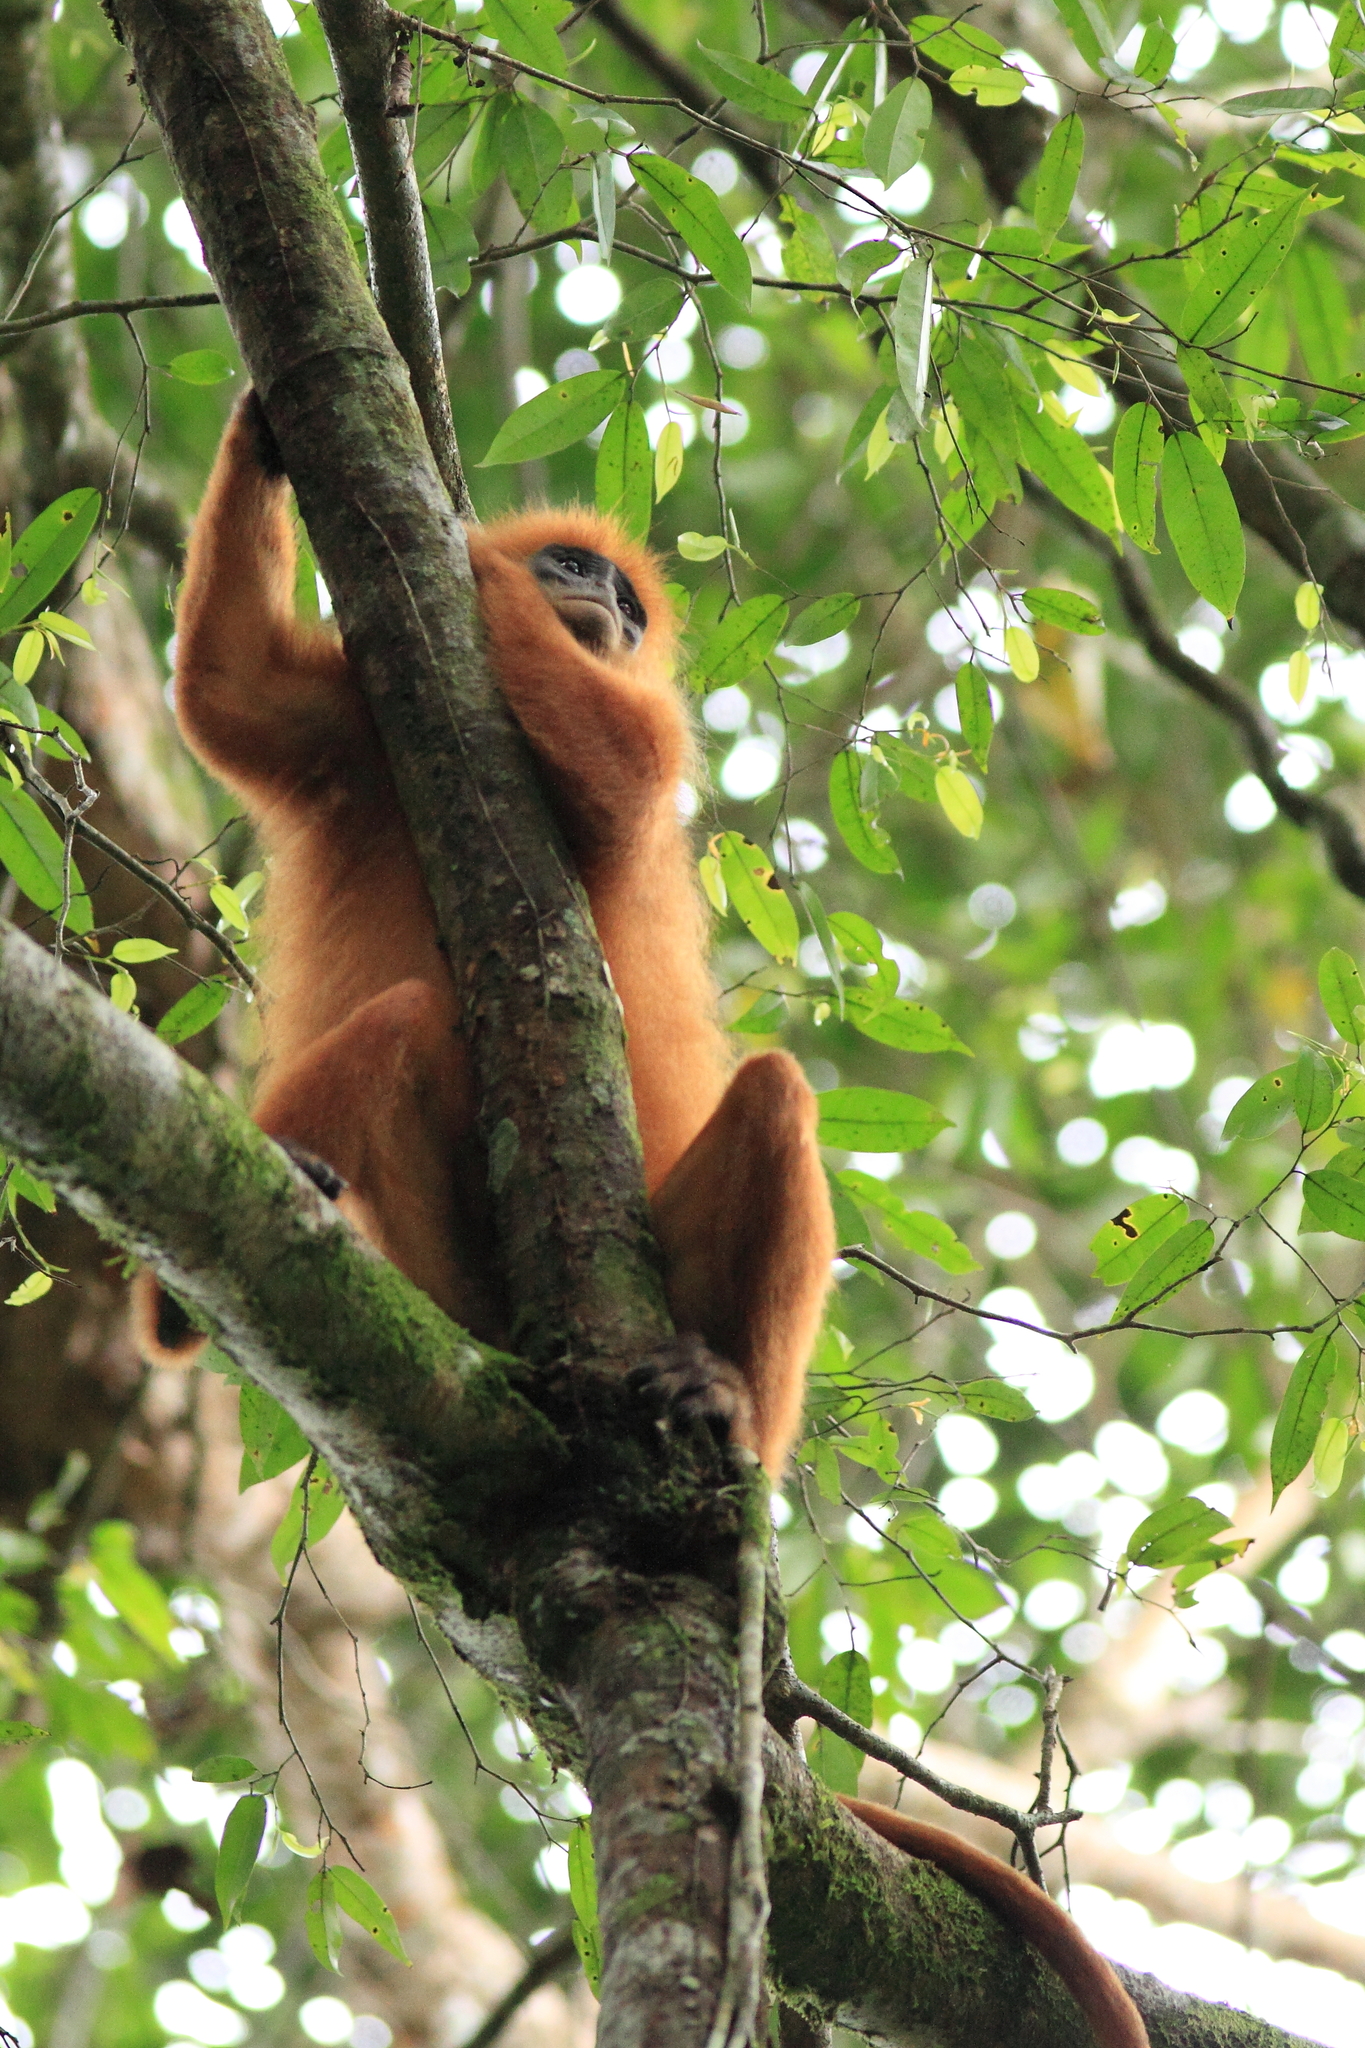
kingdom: Animalia
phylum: Chordata
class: Mammalia
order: Primates
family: Cercopithecidae
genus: Presbytis
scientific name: Presbytis rubicunda
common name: Maroon leaf monkey
